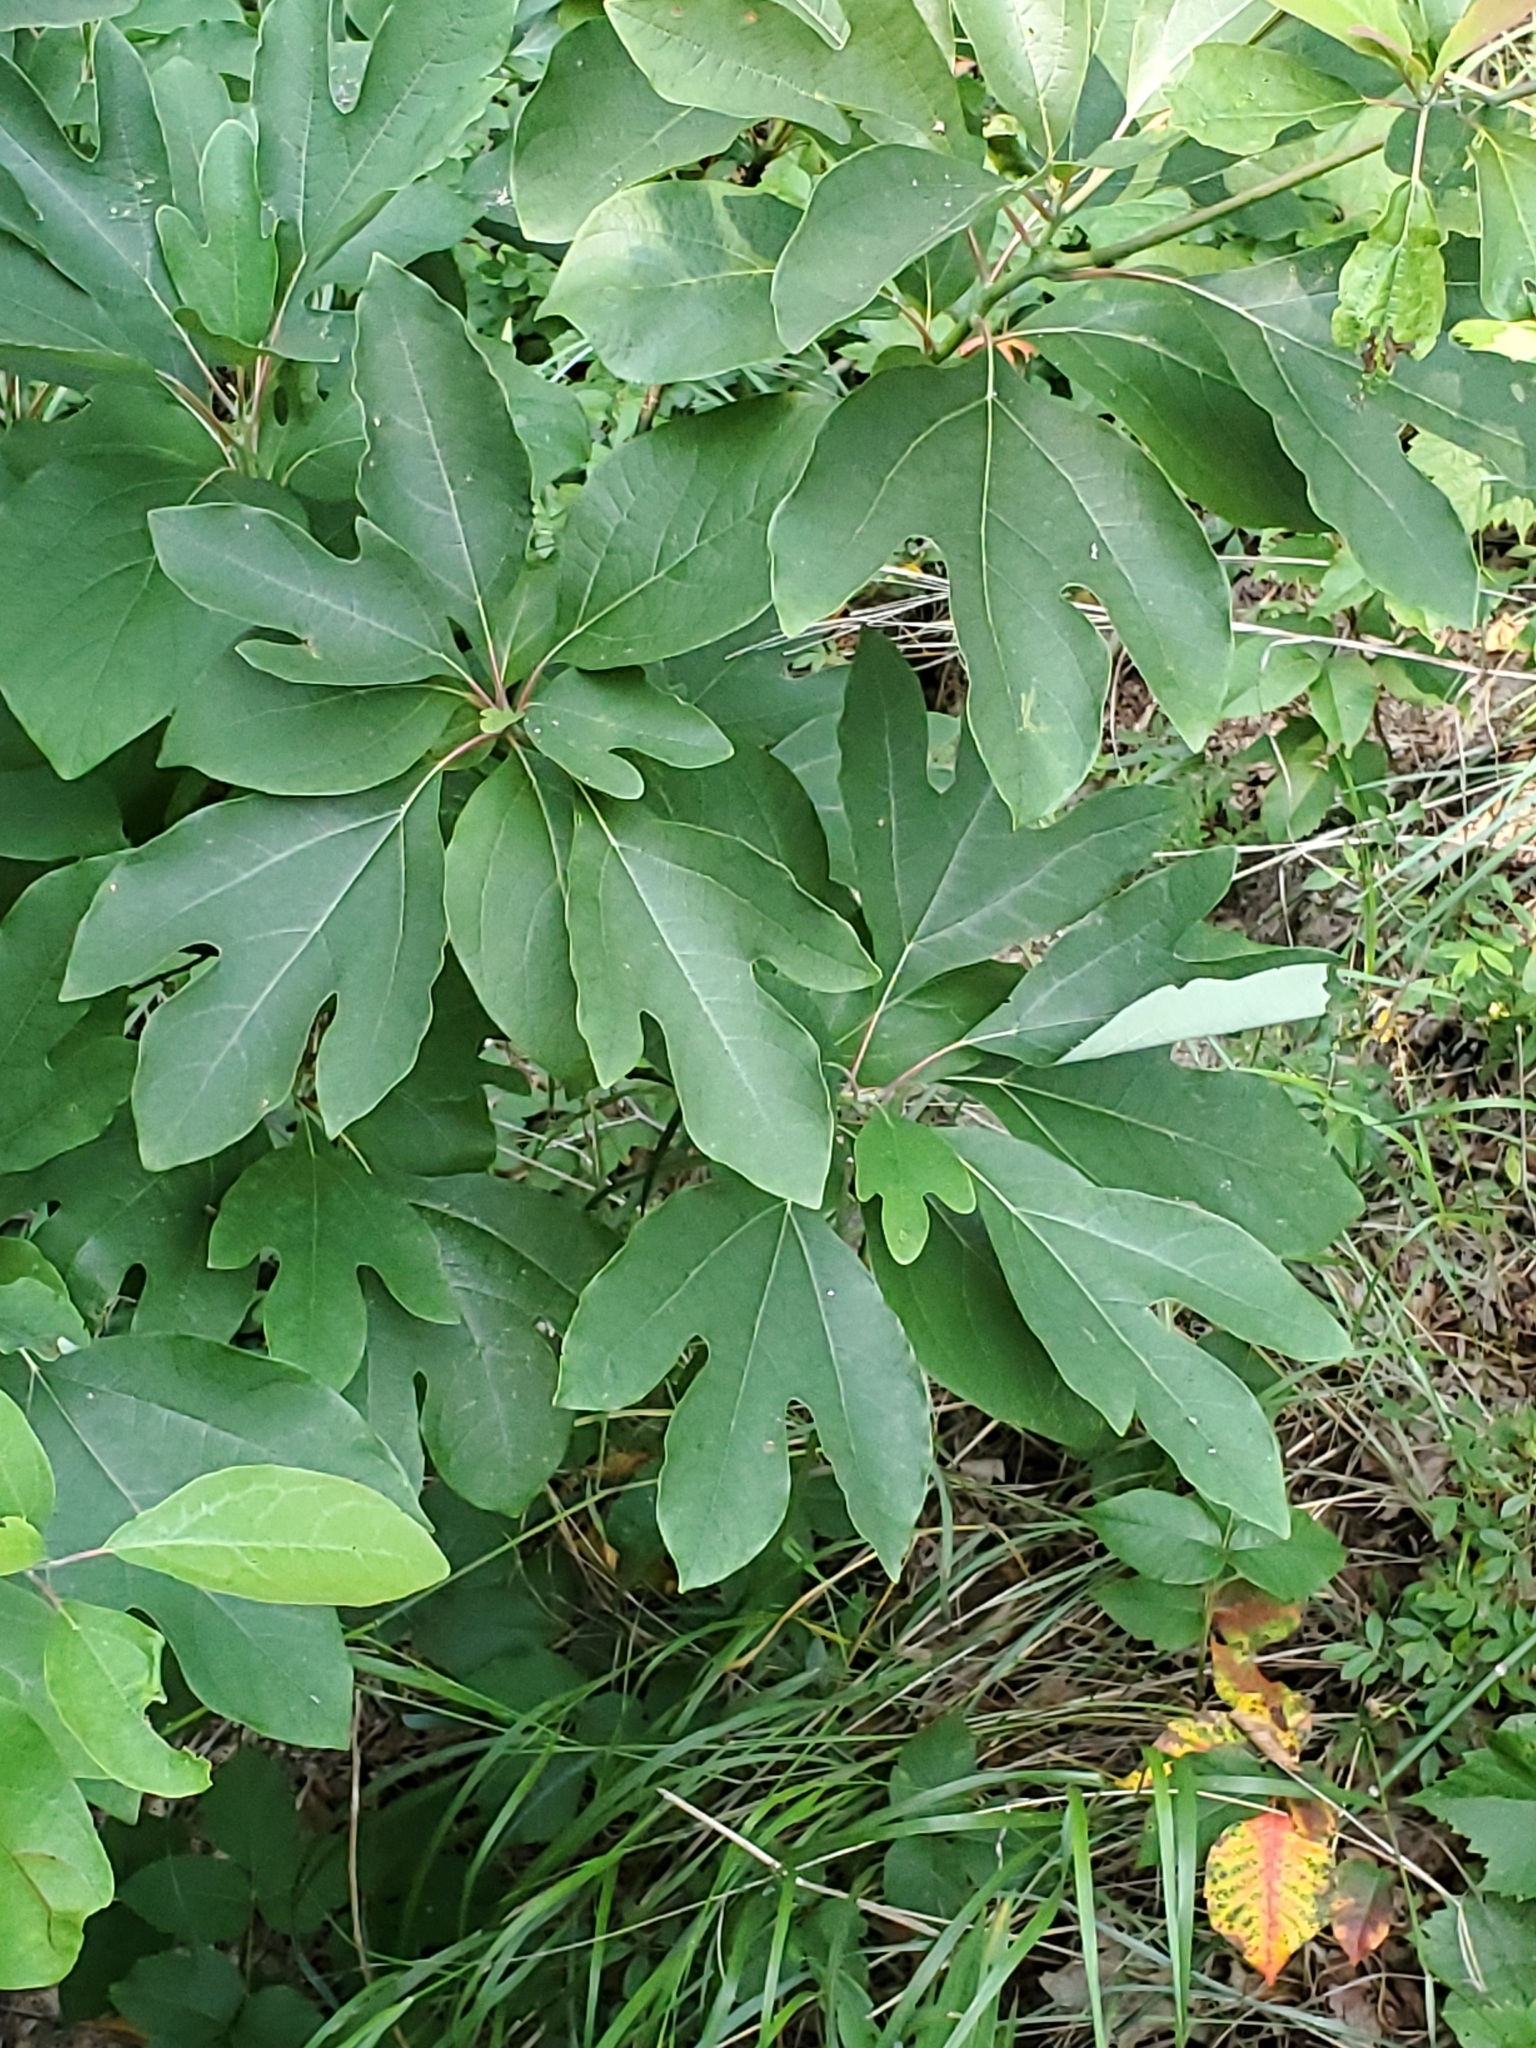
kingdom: Plantae
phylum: Tracheophyta
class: Magnoliopsida
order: Laurales
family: Lauraceae
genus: Sassafras
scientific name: Sassafras albidum
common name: Sassafras
